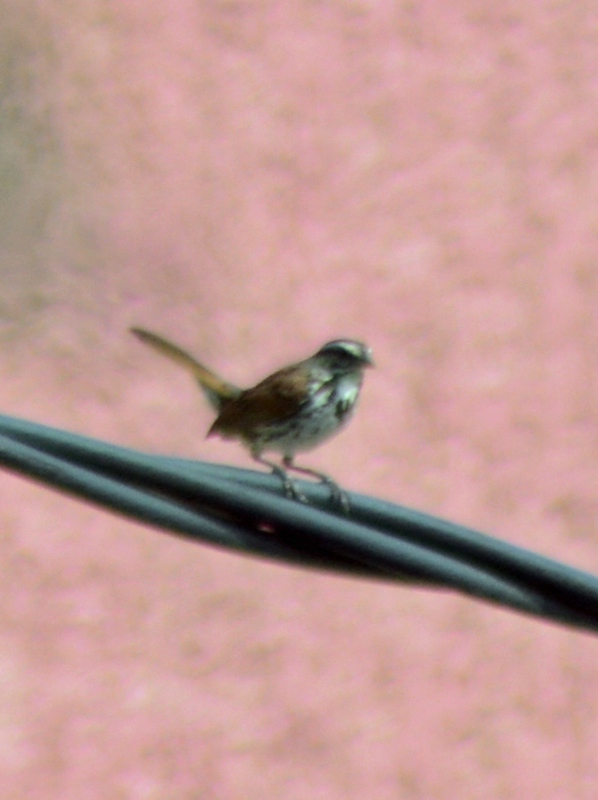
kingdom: Animalia
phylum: Chordata
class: Aves
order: Passeriformes
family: Passerellidae
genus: Melospiza
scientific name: Melospiza melodia
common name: Song sparrow
